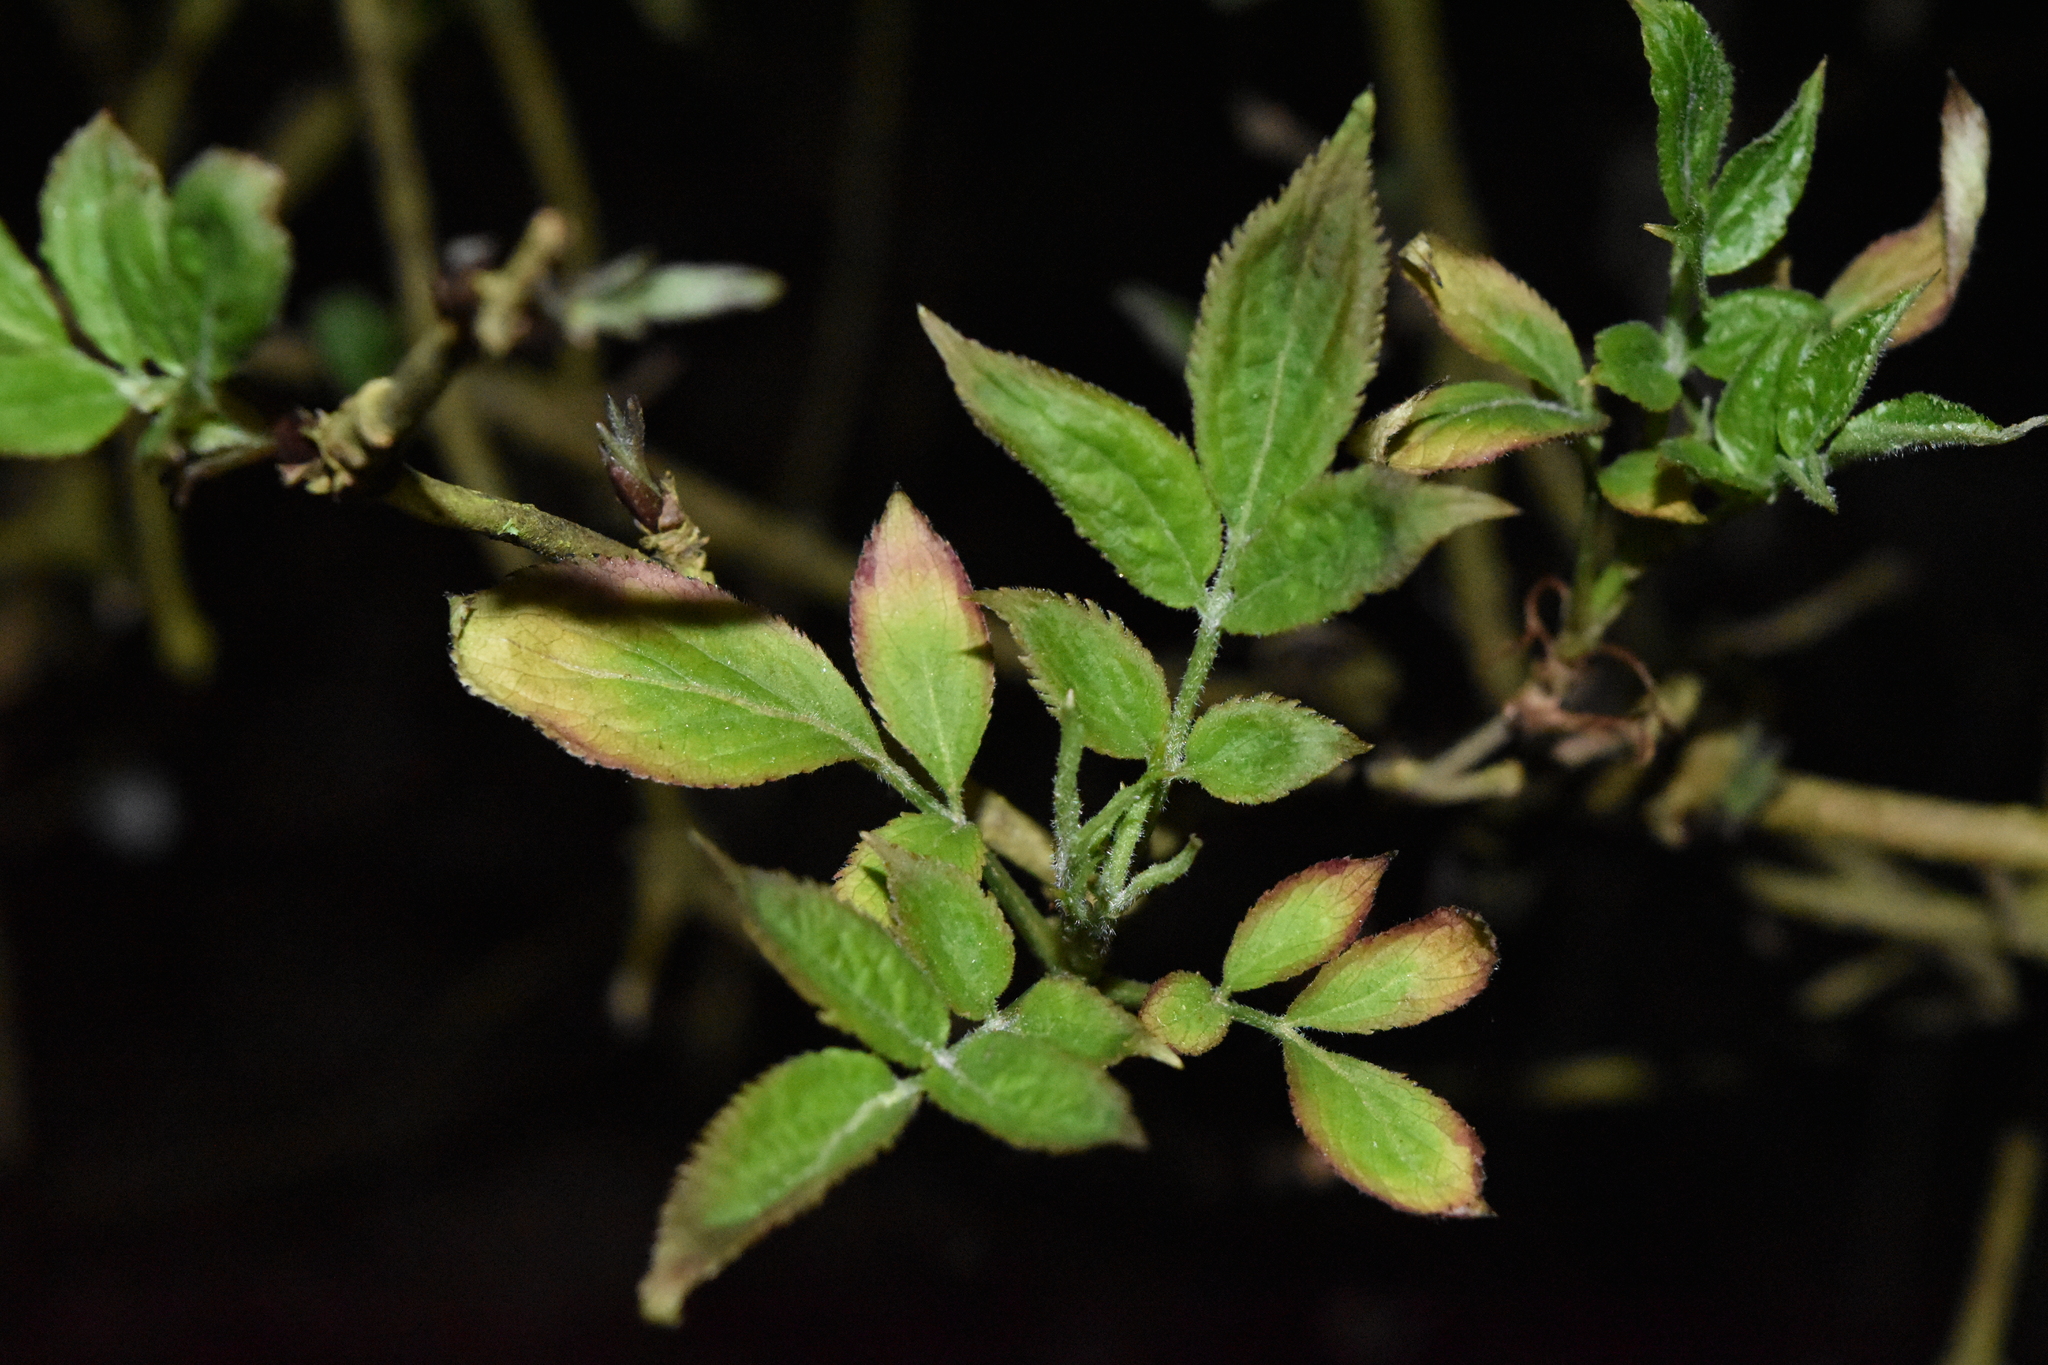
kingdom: Plantae
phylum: Tracheophyta
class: Magnoliopsida
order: Dipsacales
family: Viburnaceae
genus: Sambucus
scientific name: Sambucus nigra
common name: Elder
